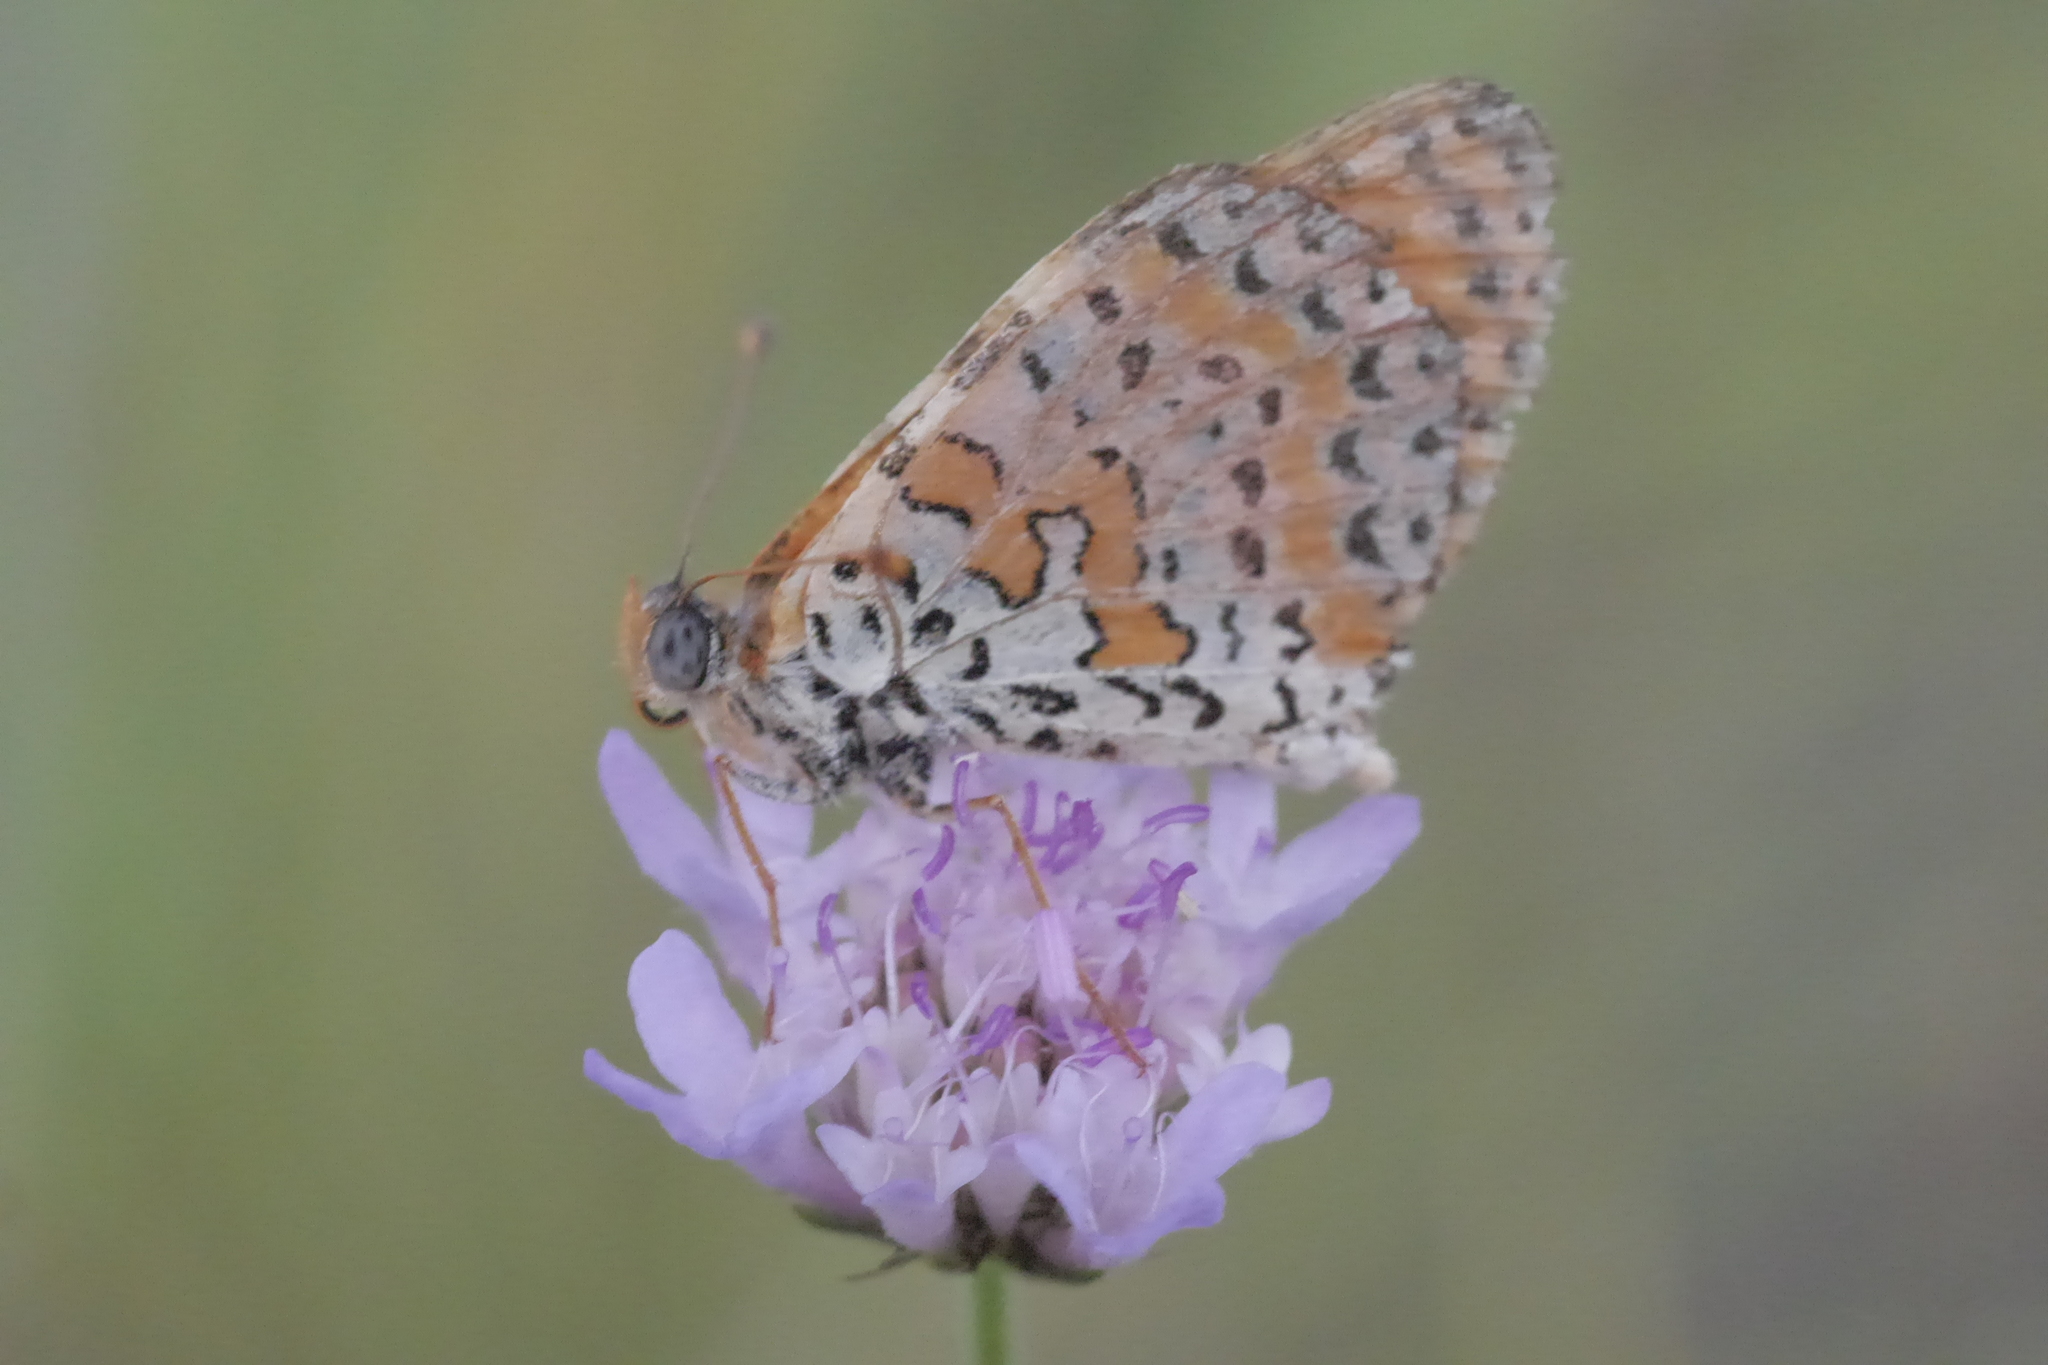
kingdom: Animalia
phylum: Arthropoda
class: Insecta
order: Lepidoptera
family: Nymphalidae
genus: Melitaea
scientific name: Melitaea didyma
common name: Spotted fritillary
